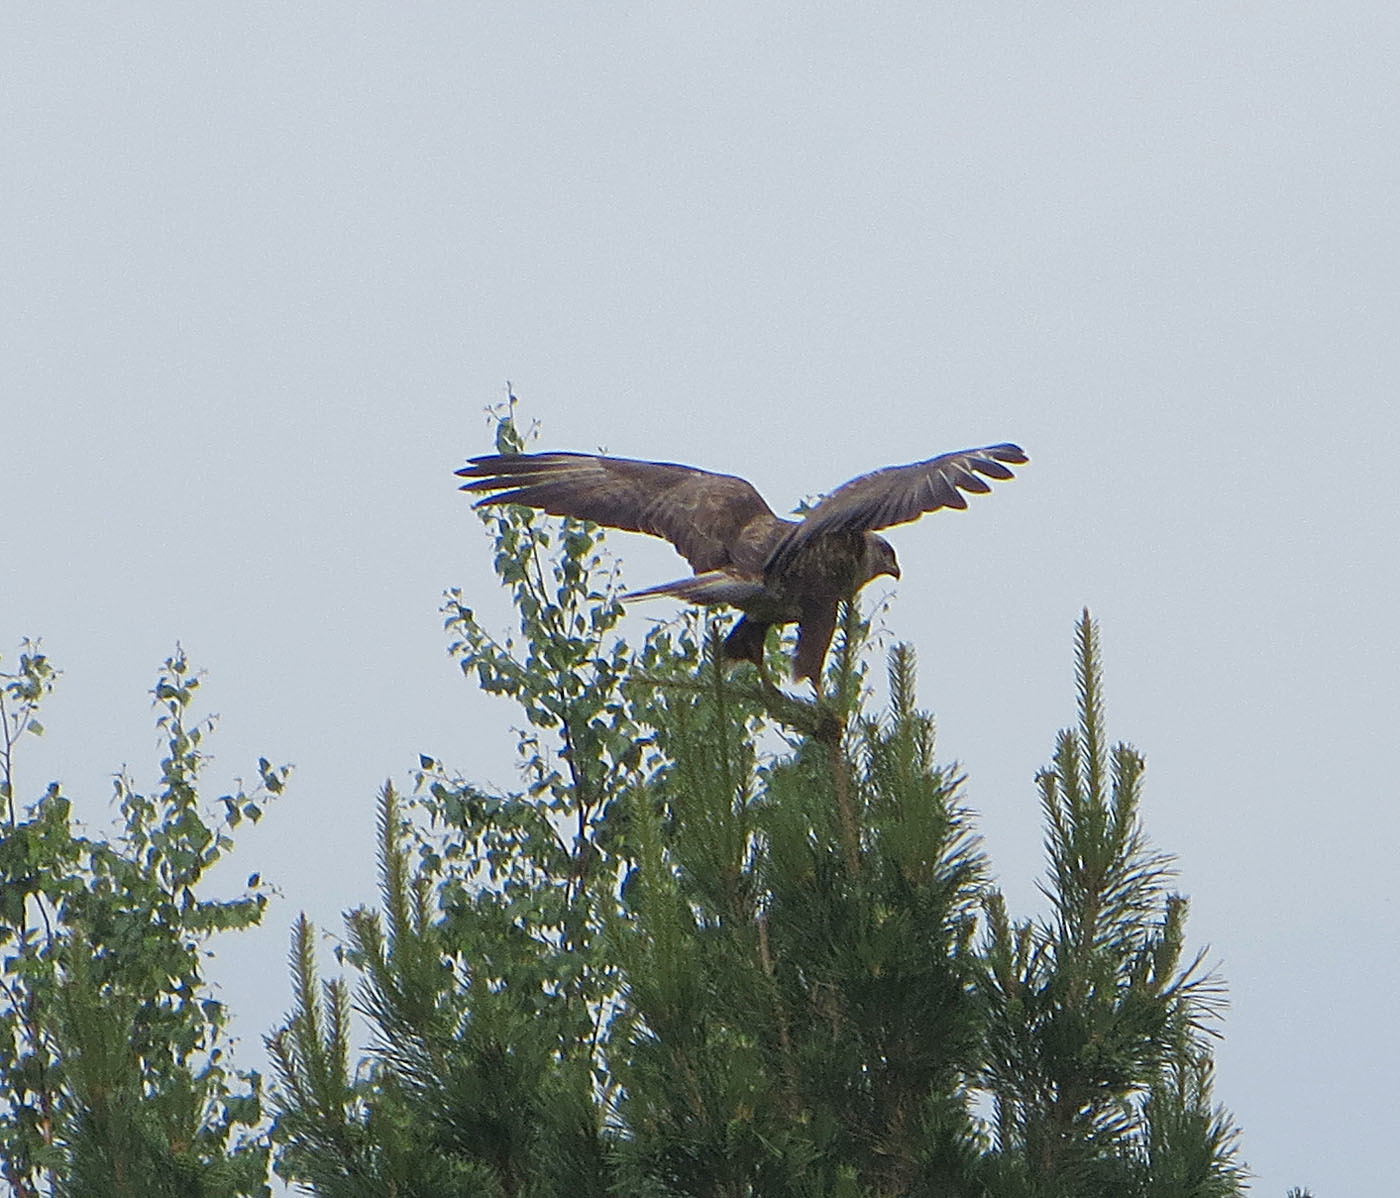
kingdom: Animalia
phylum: Chordata
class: Aves
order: Accipitriformes
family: Accipitridae
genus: Buteo
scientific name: Buteo buteo
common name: Common buzzard
